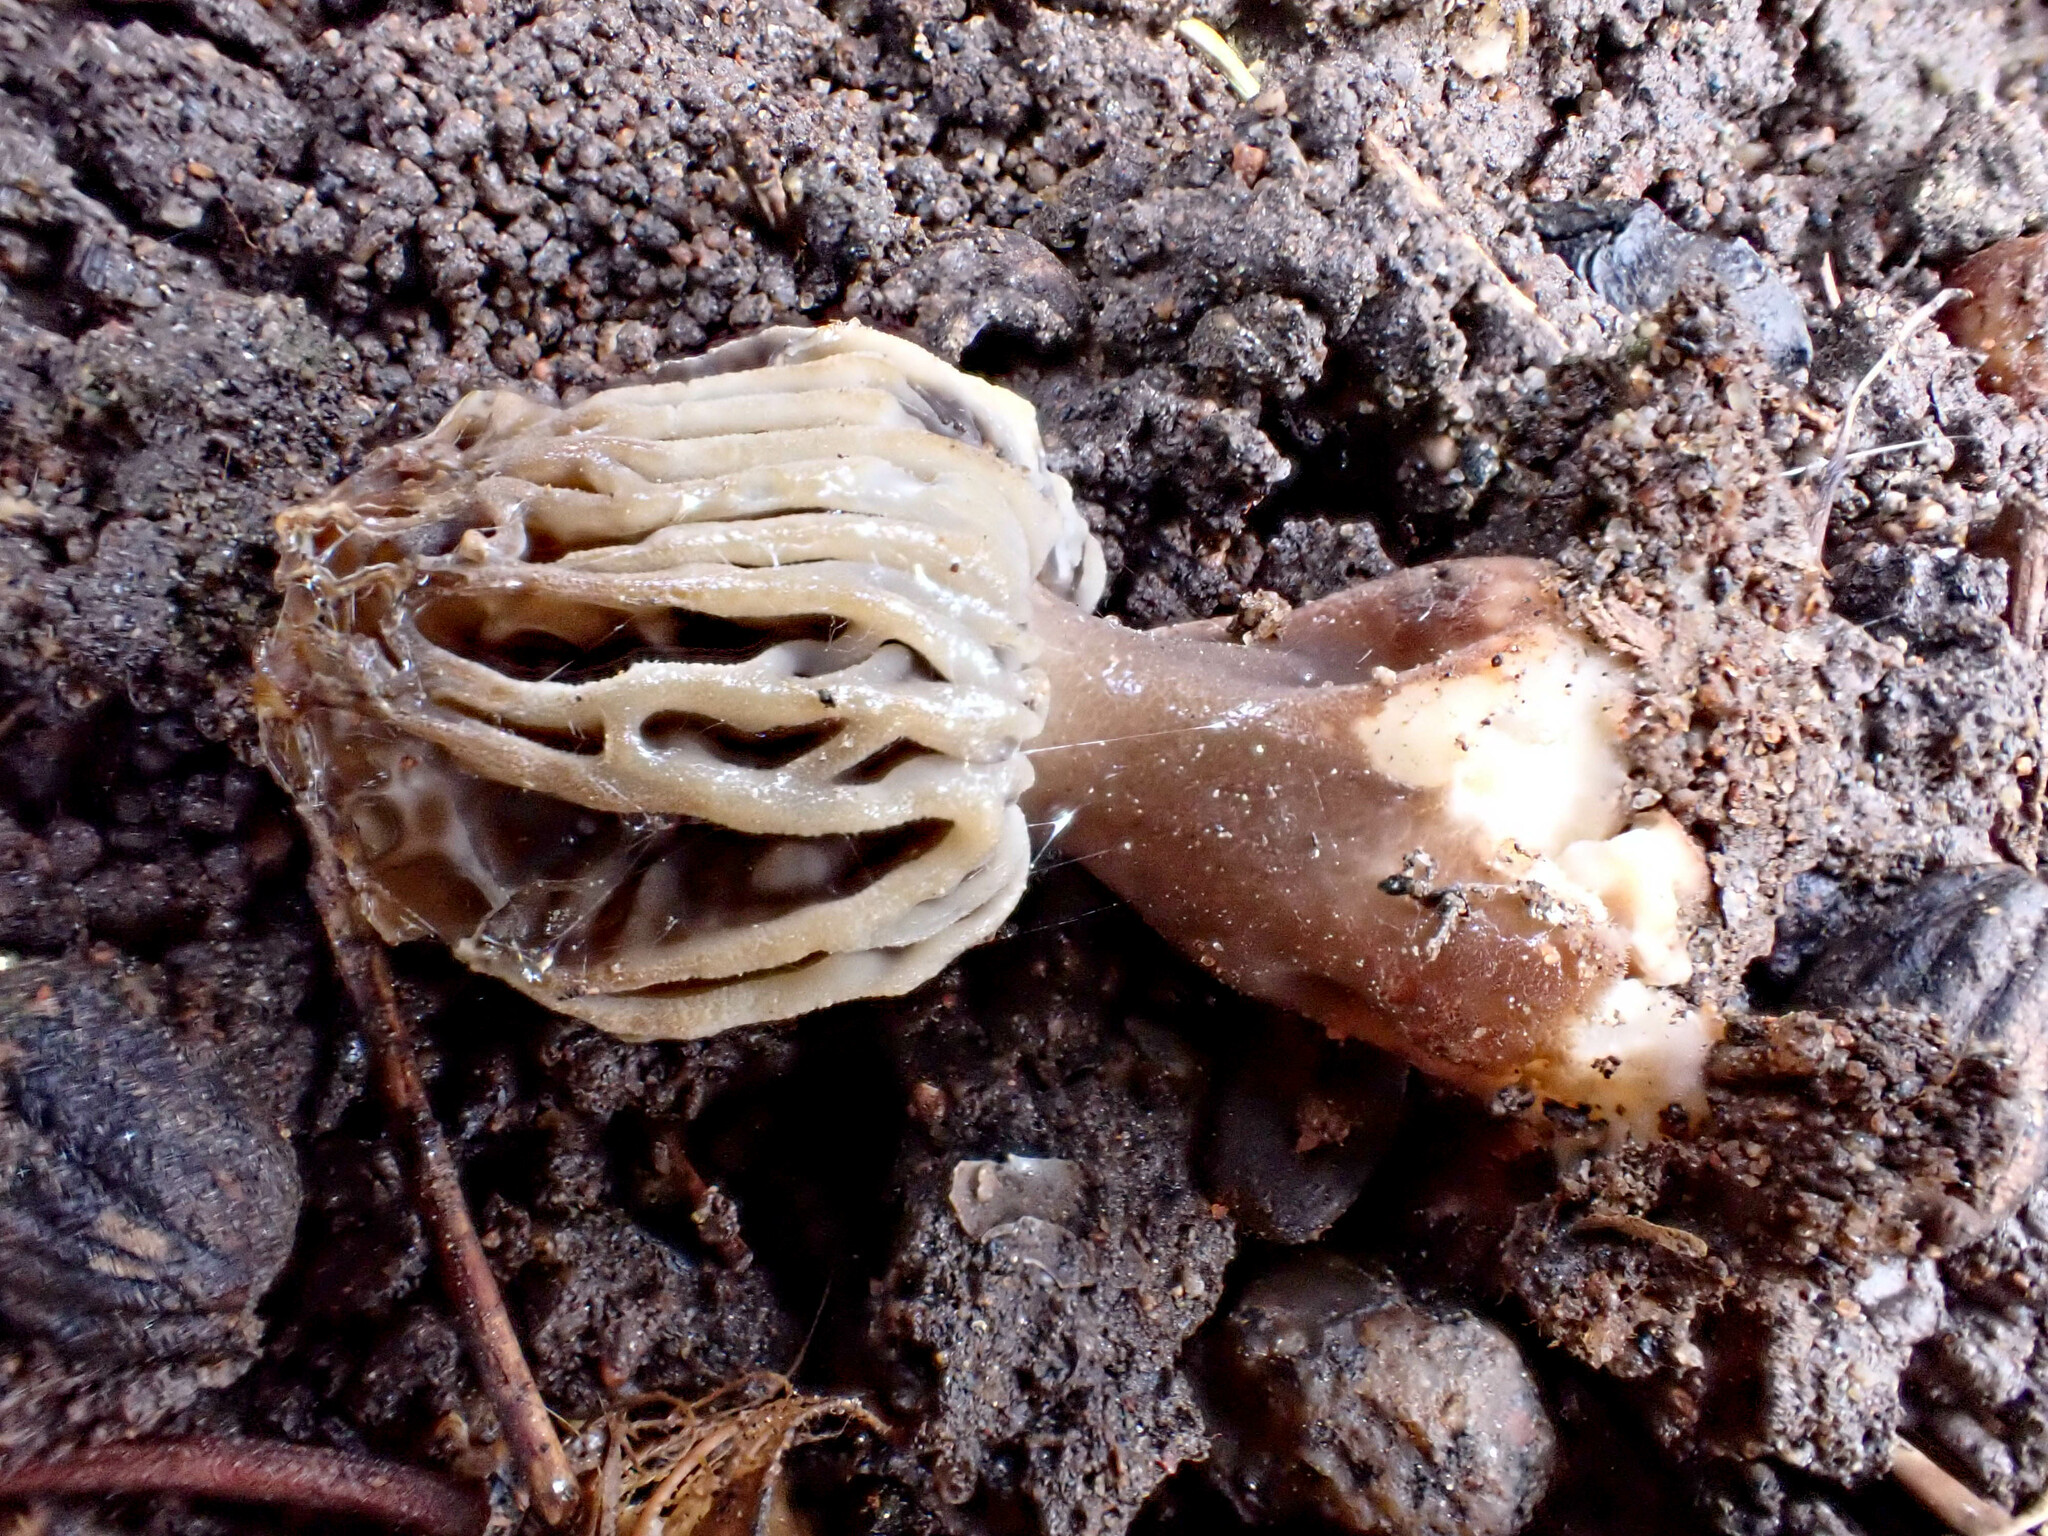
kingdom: Fungi
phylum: Ascomycota
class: Pezizomycetes
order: Pezizales
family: Morchellaceae
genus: Morchella
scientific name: Morchella rufobrunnea
